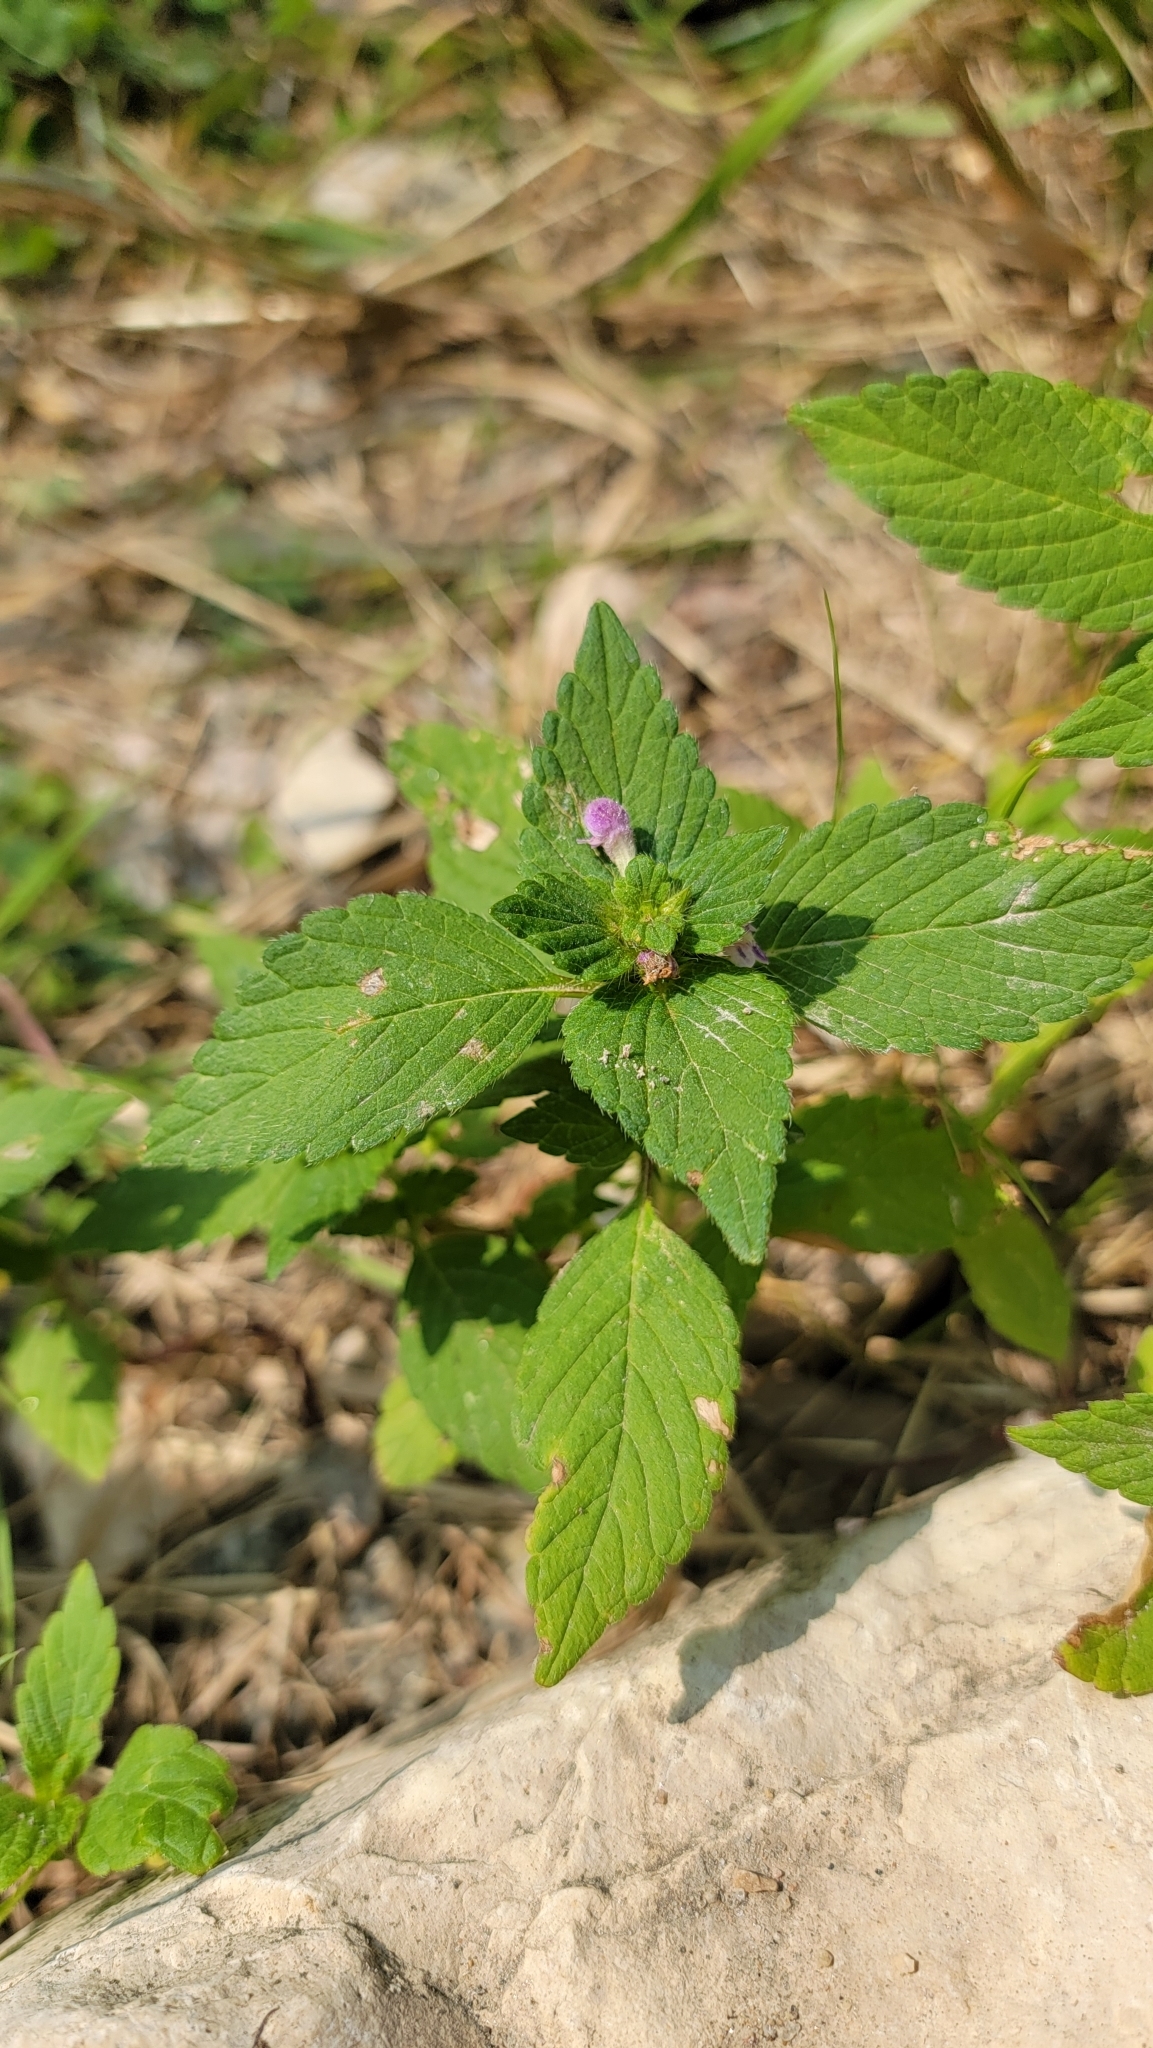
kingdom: Plantae
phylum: Tracheophyta
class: Magnoliopsida
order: Lamiales
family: Lamiaceae
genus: Galeopsis
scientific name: Galeopsis bifida
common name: Bifid hemp-nettle
